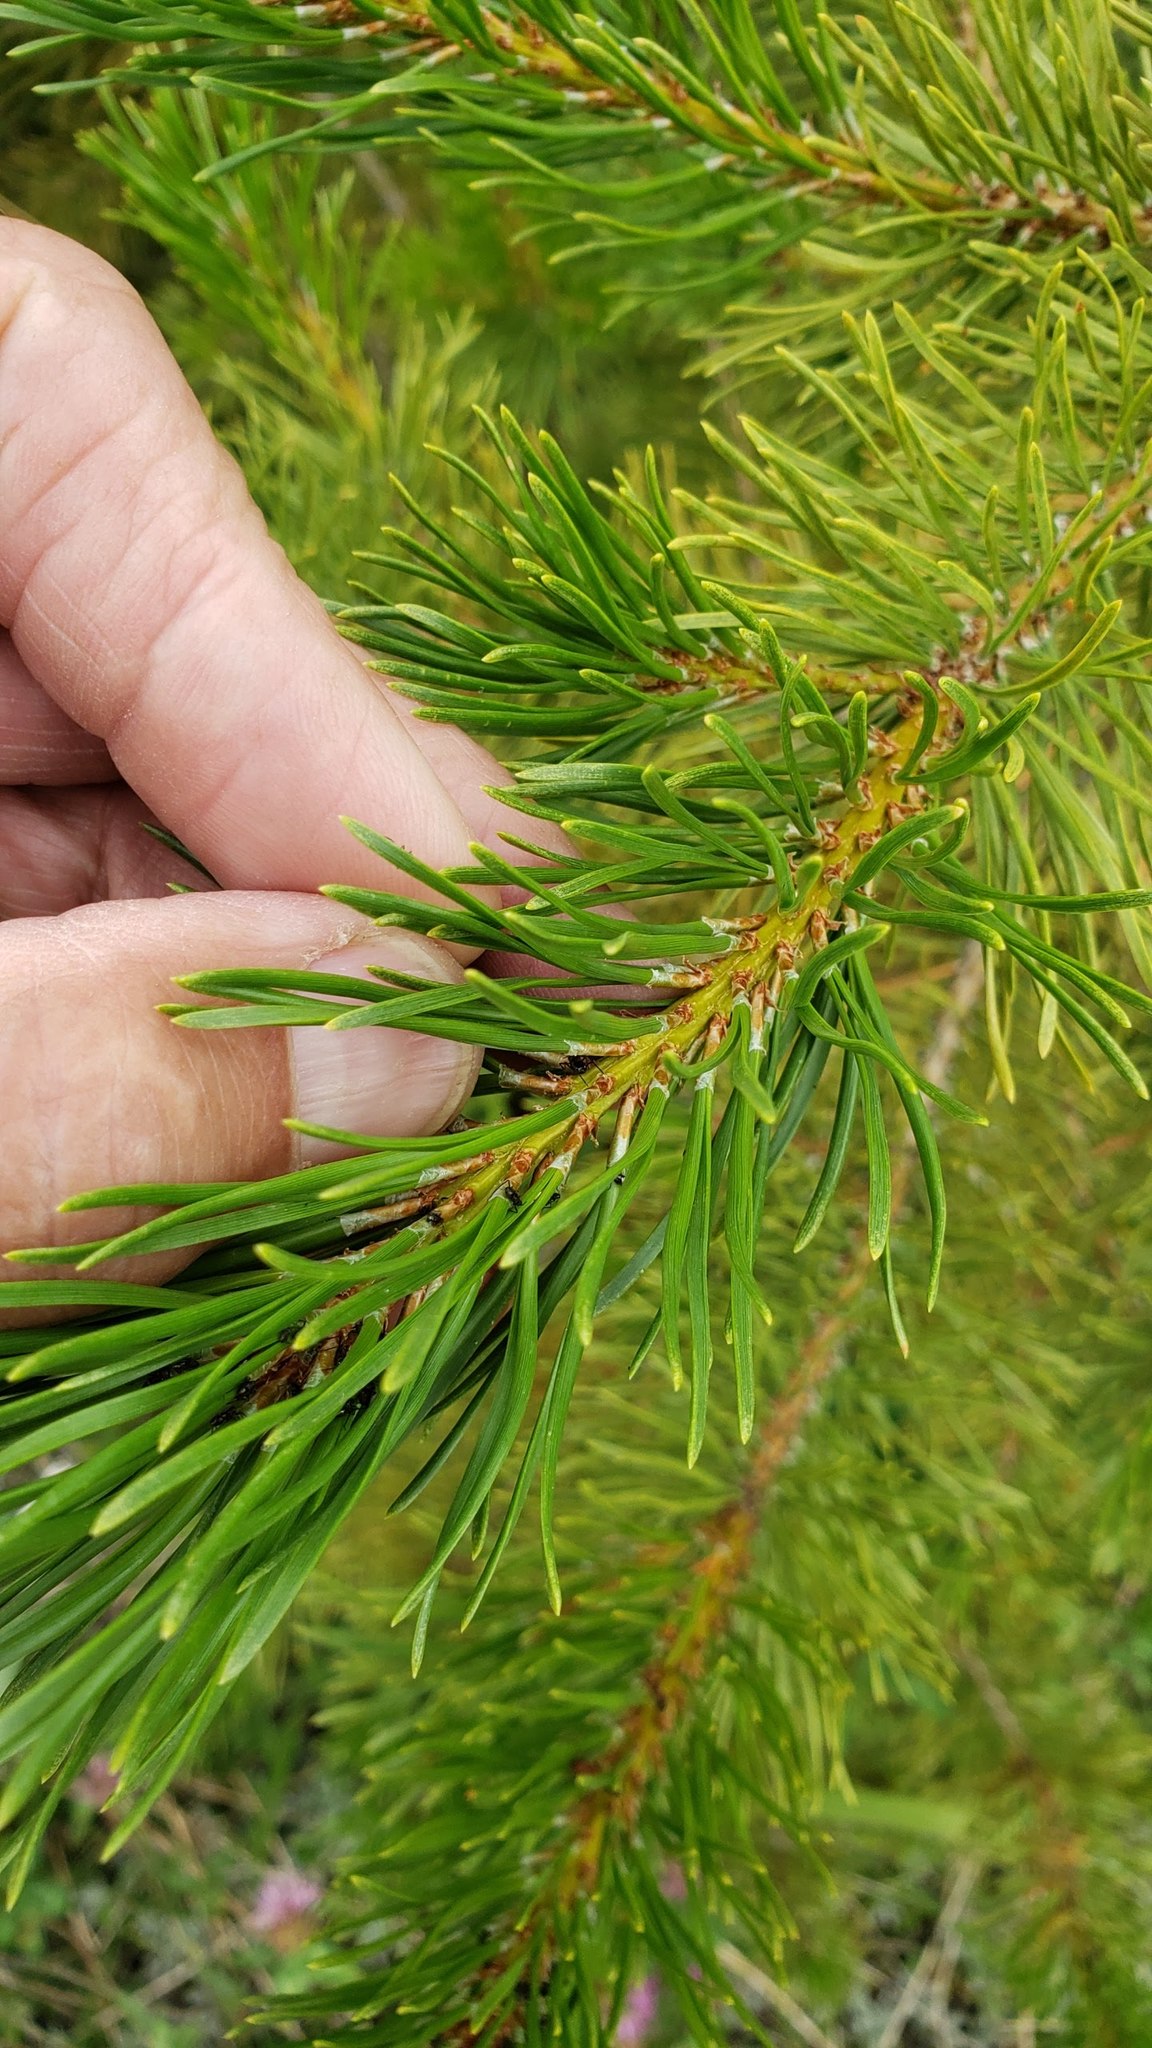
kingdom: Plantae
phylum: Tracheophyta
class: Pinopsida
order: Pinales
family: Pinaceae
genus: Pinus
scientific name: Pinus contorta
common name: Lodgepole pine
